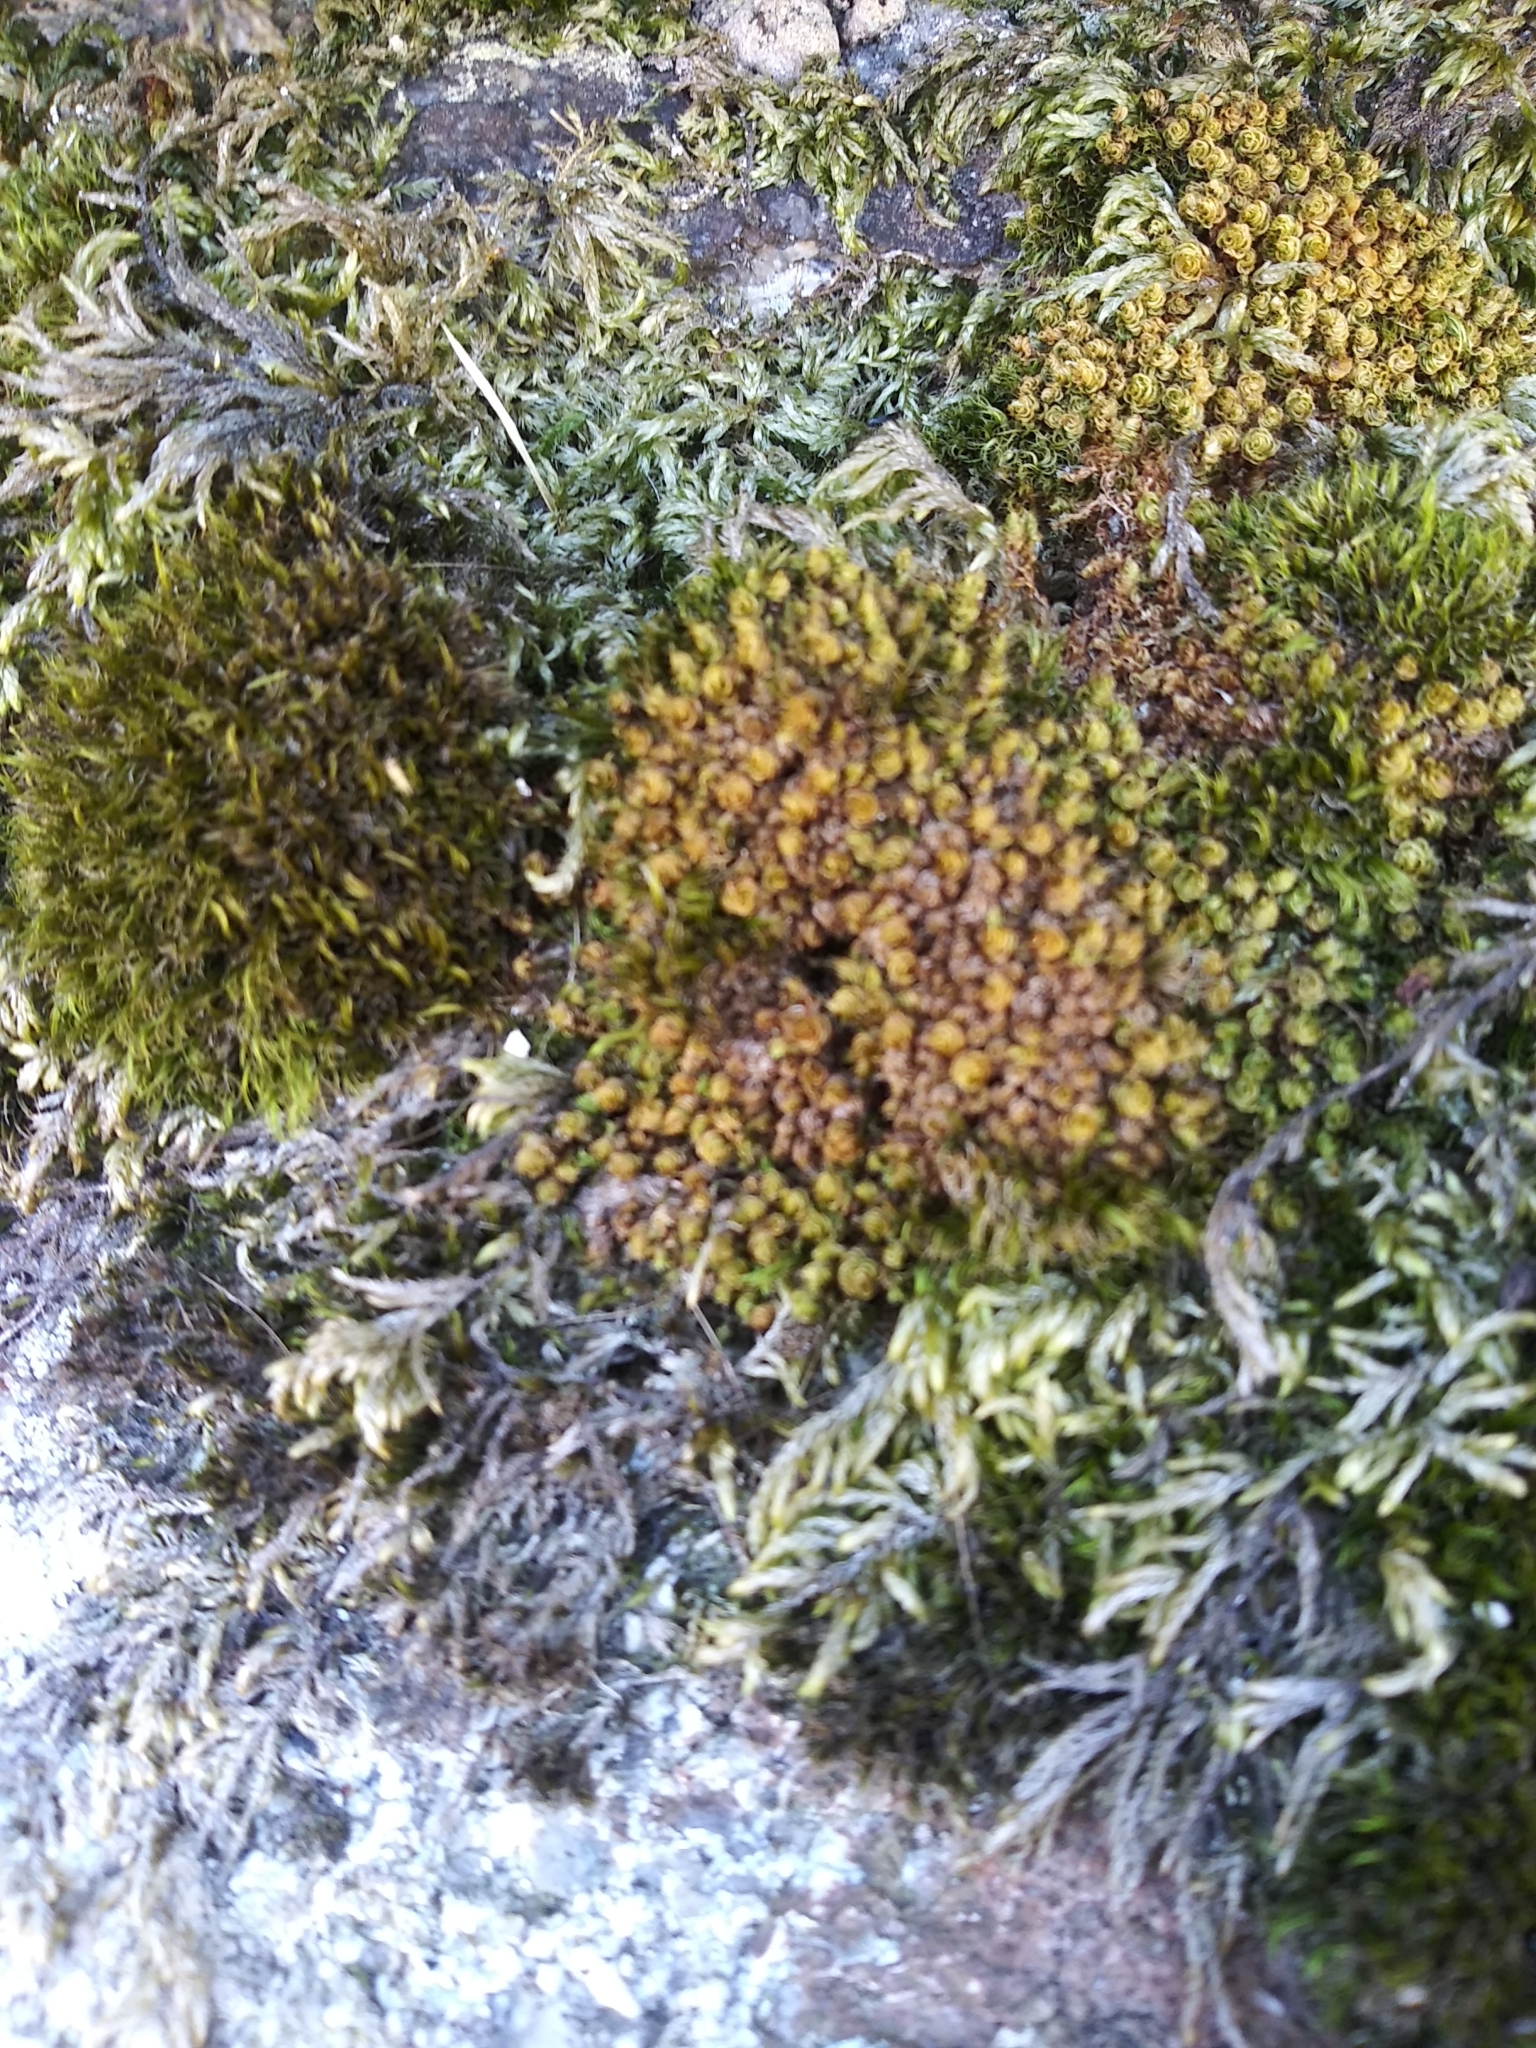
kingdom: Plantae
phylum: Bryophyta
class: Bryopsida
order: Bryales
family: Bryaceae
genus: Rosulabryum
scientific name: Rosulabryum capillare
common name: Capillary thread-moss
